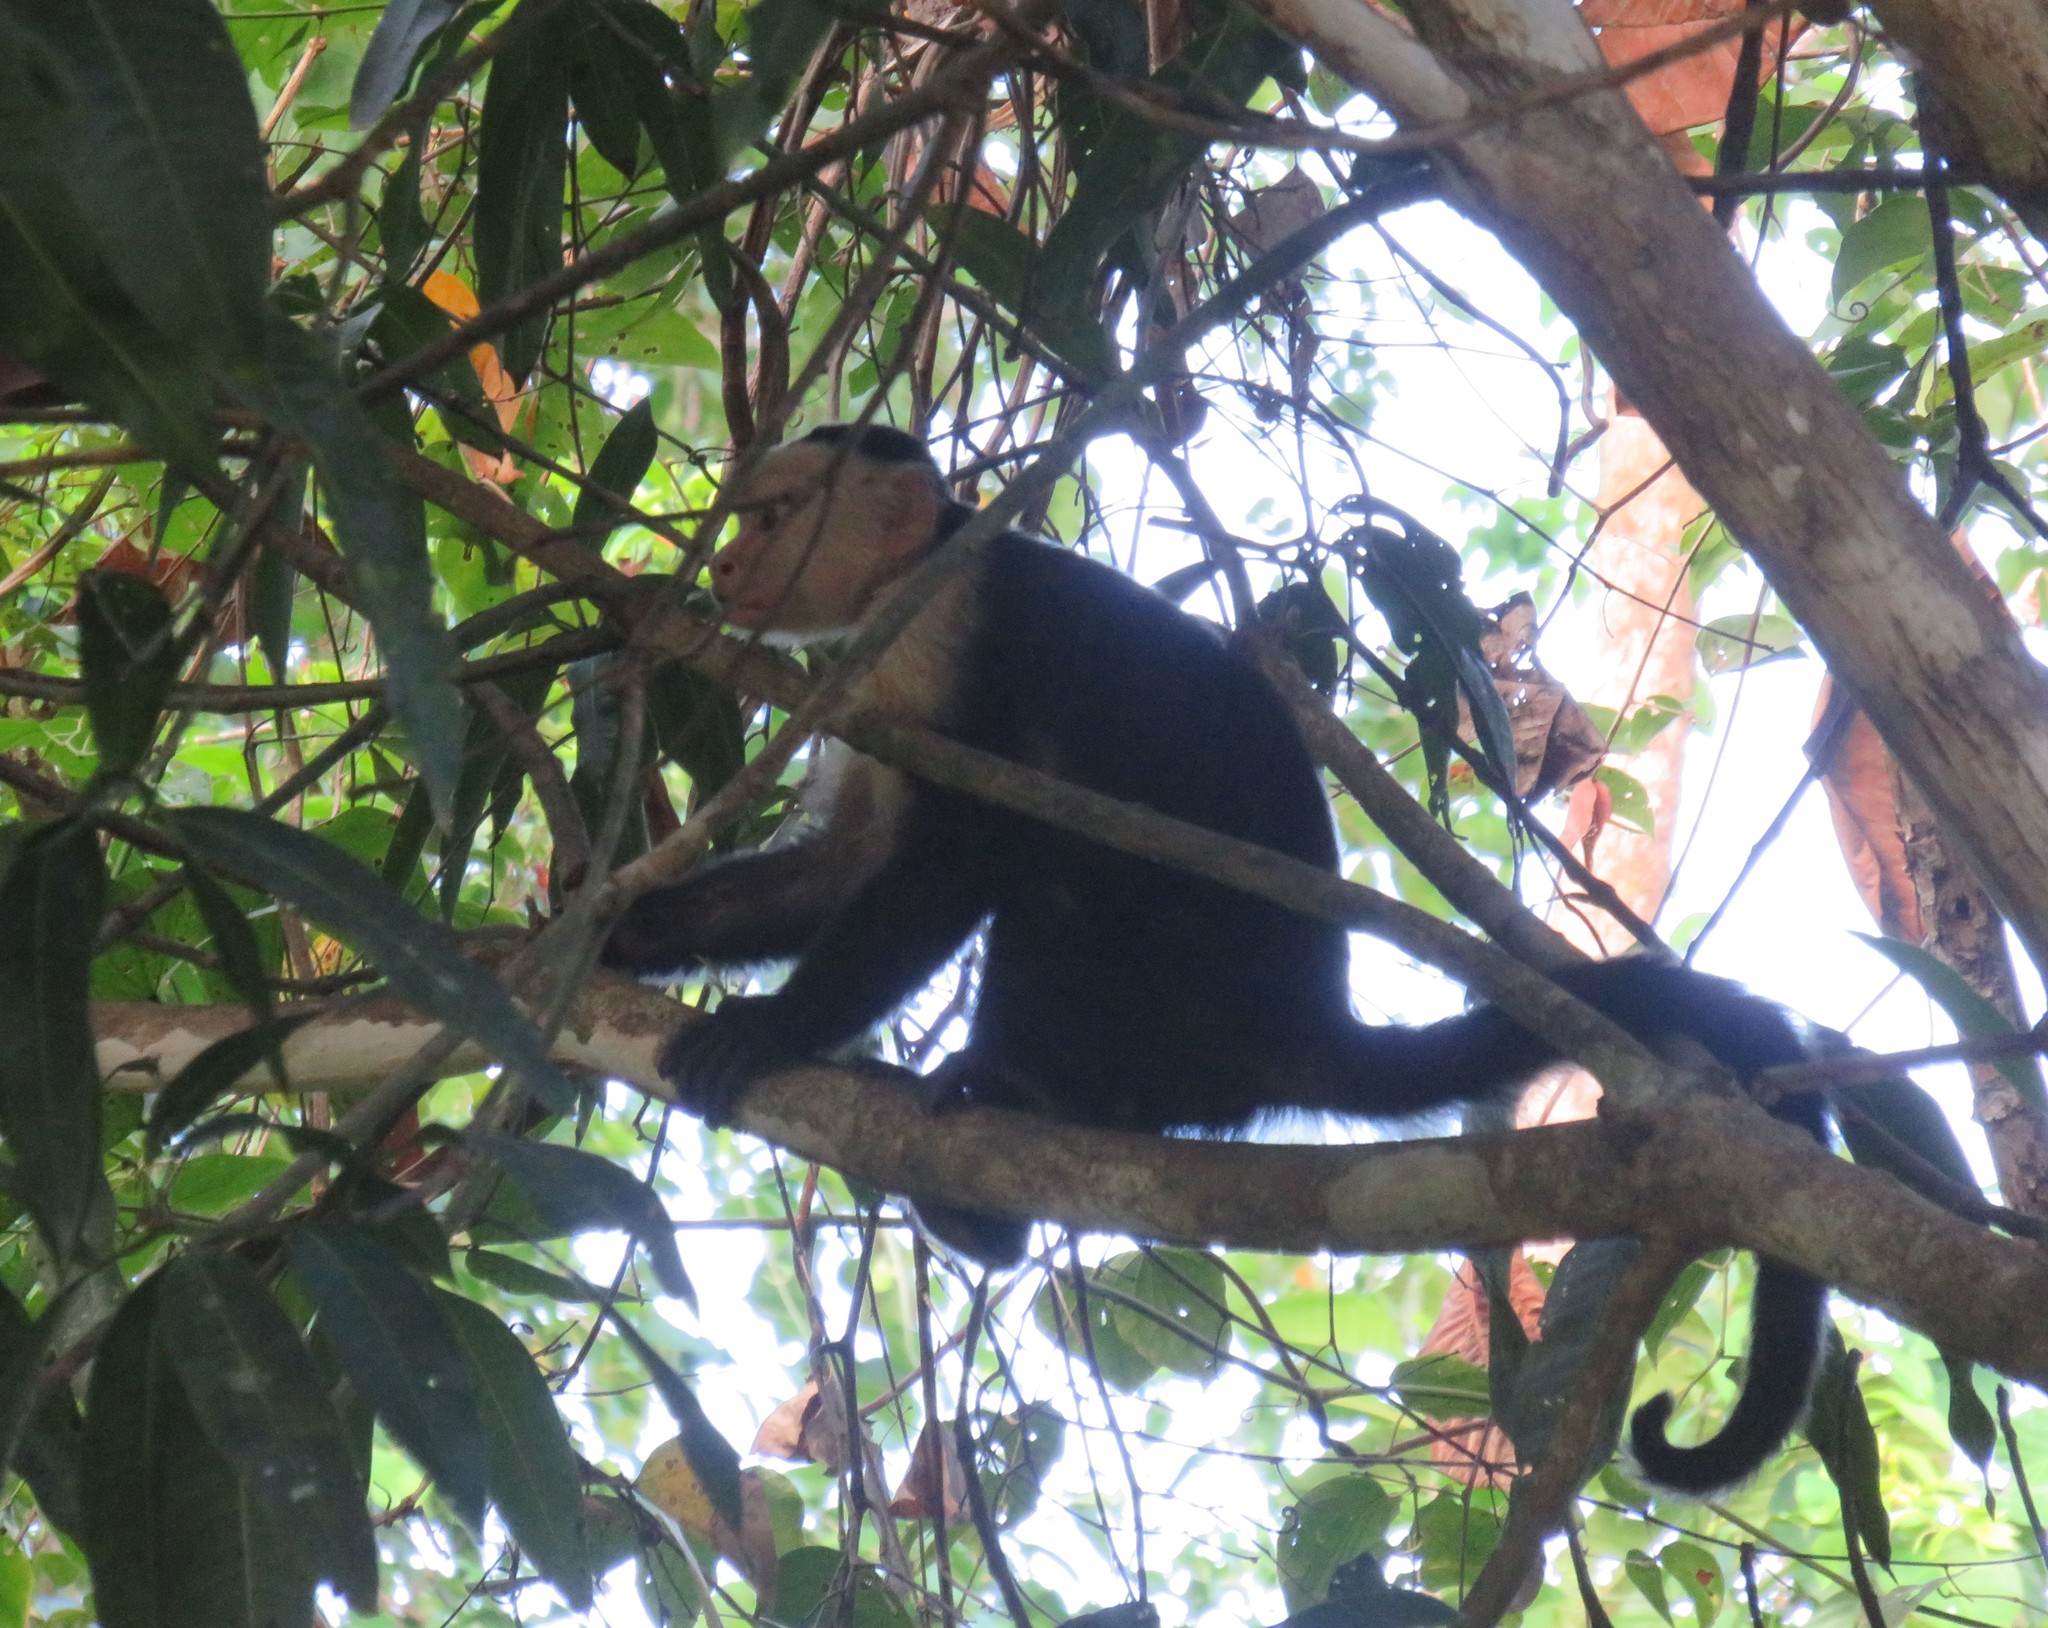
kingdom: Animalia
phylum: Chordata
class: Mammalia
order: Primates
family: Cebidae
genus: Cebus
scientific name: Cebus imitator
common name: Panamanian white-faced capuchin
